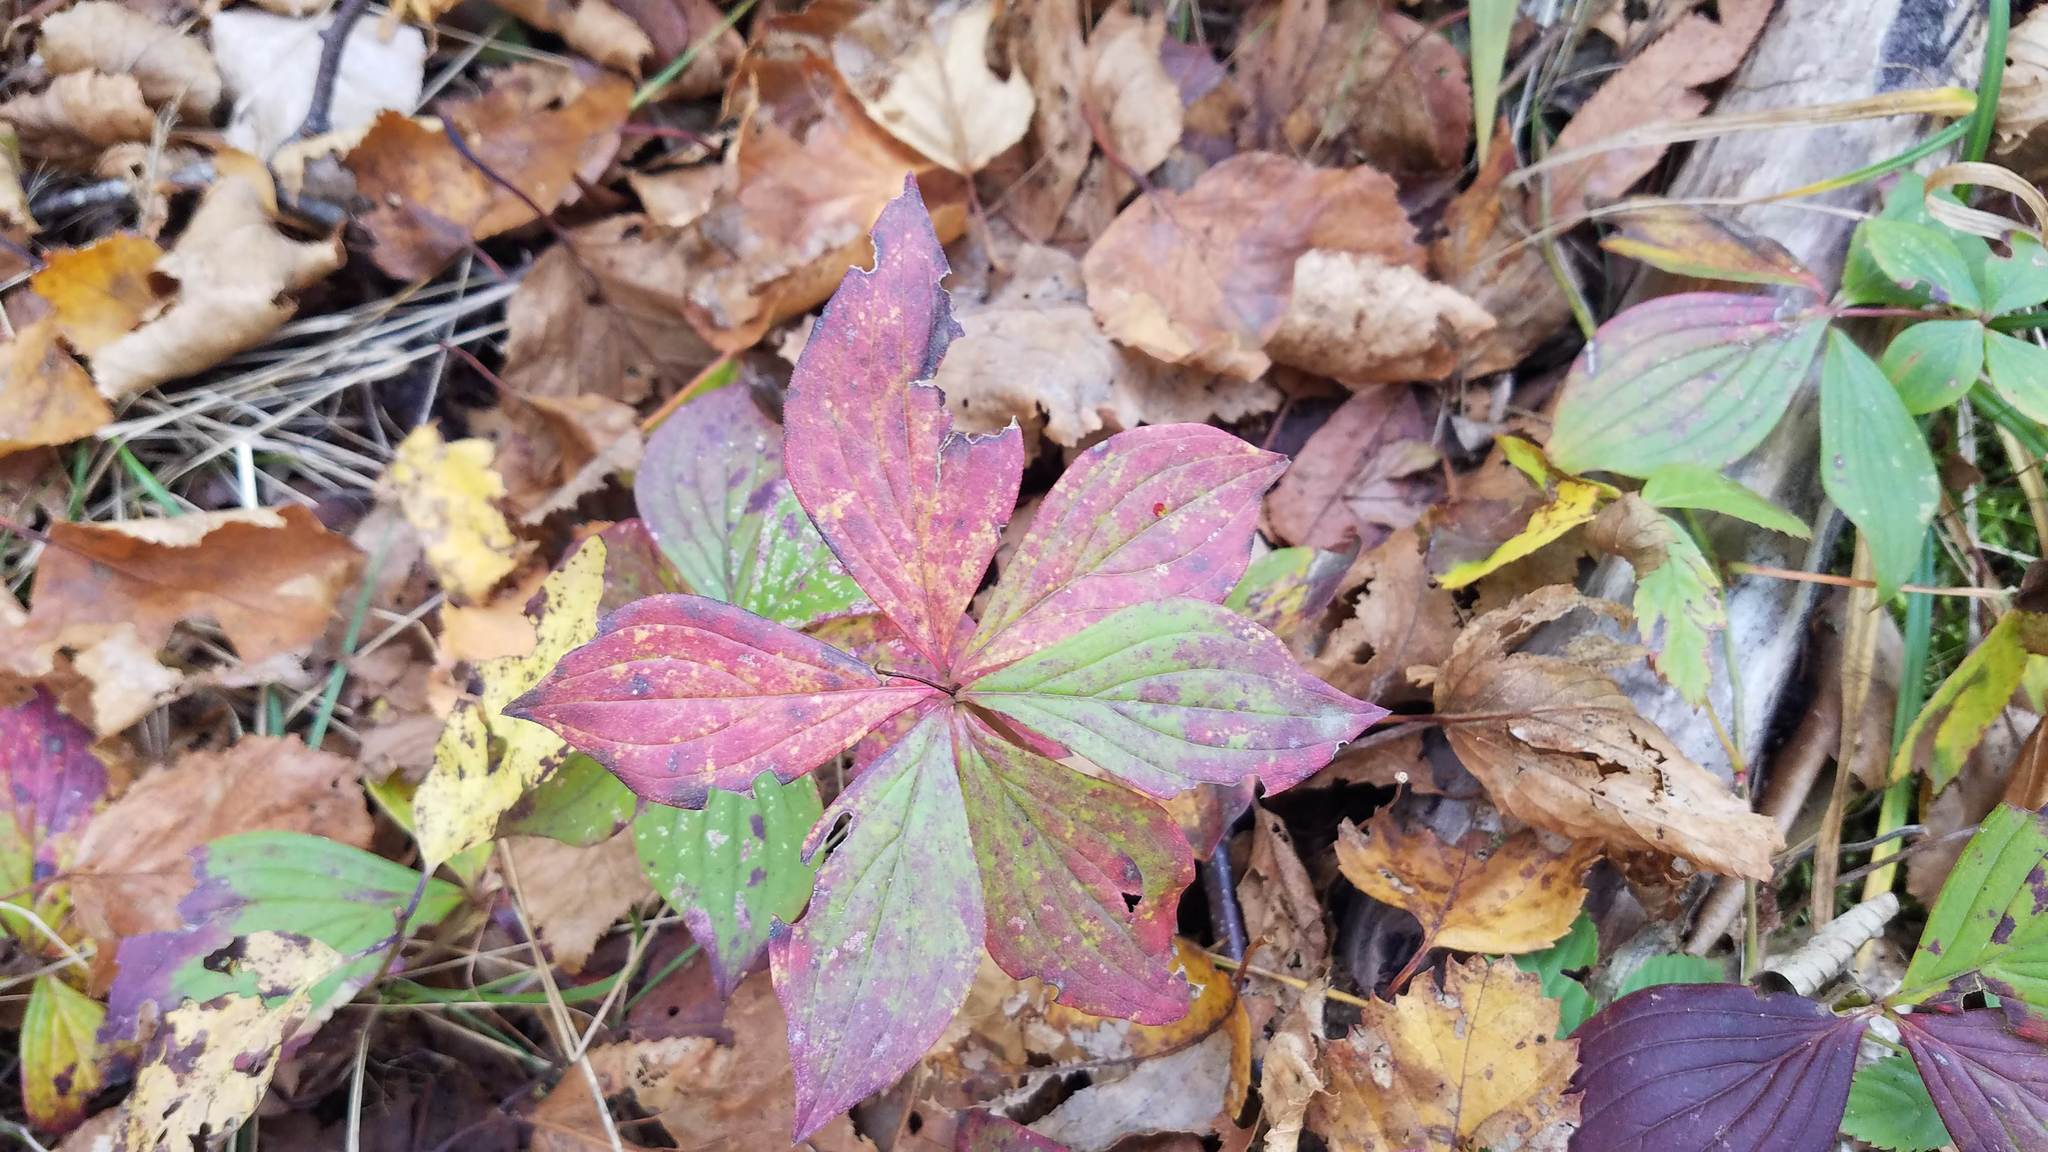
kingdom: Plantae
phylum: Tracheophyta
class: Magnoliopsida
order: Cornales
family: Cornaceae
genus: Cornus
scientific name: Cornus canadensis
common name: Creeping dogwood
